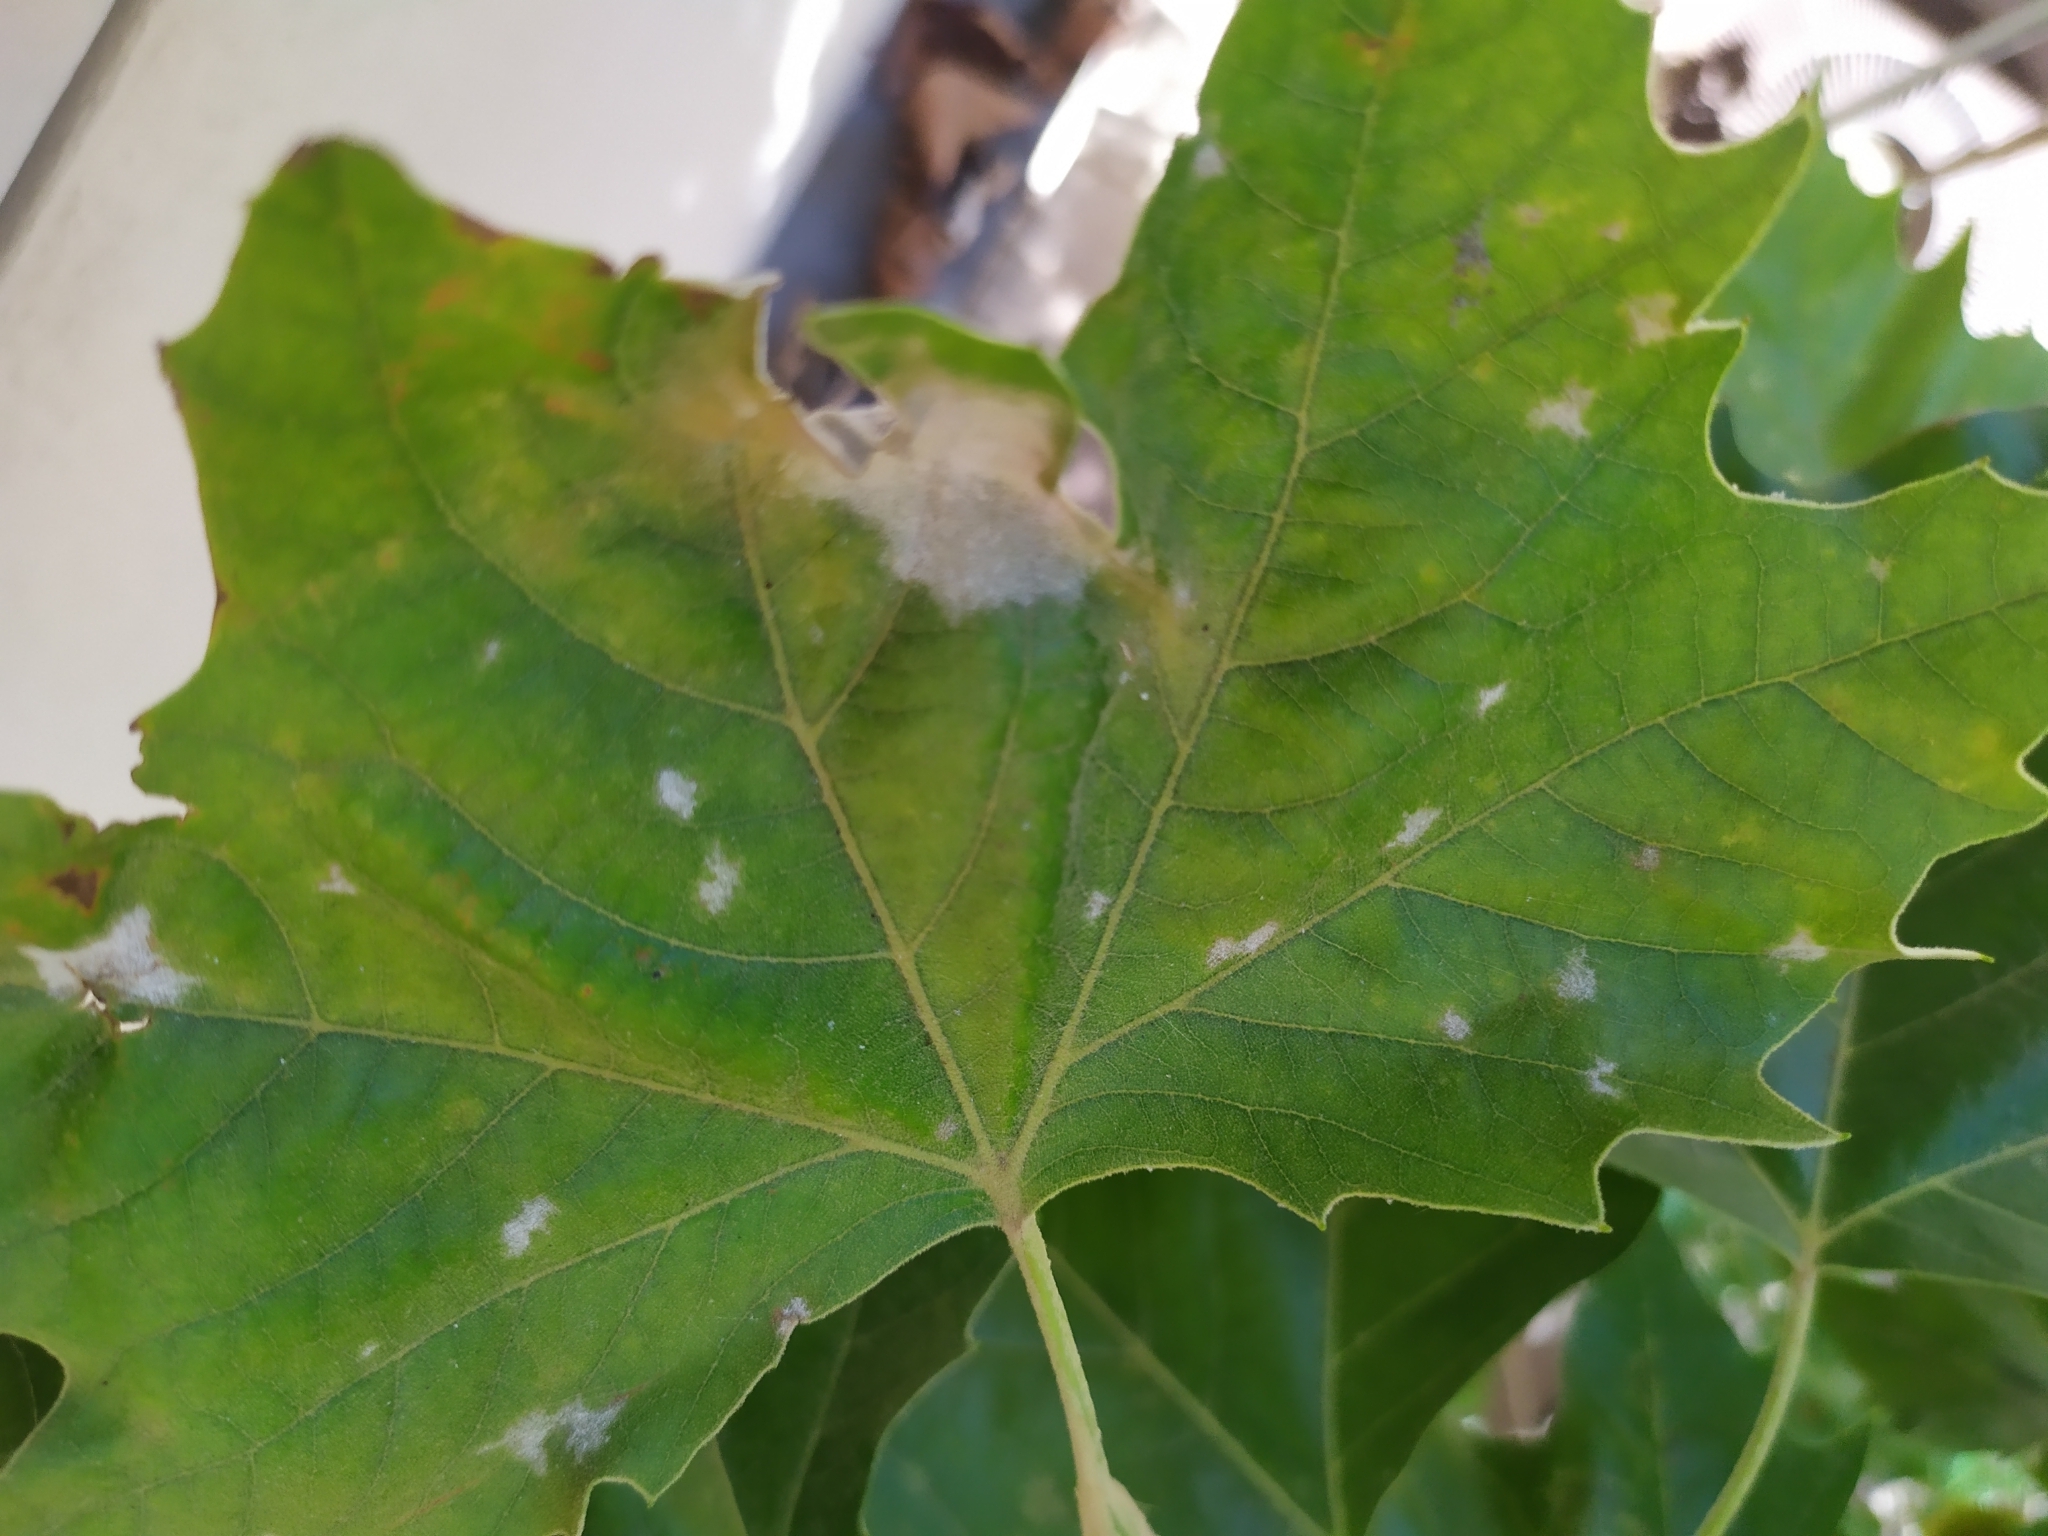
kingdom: Fungi
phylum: Ascomycota
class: Leotiomycetes
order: Helotiales
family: Erysiphaceae
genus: Erysiphe
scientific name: Erysiphe platani
